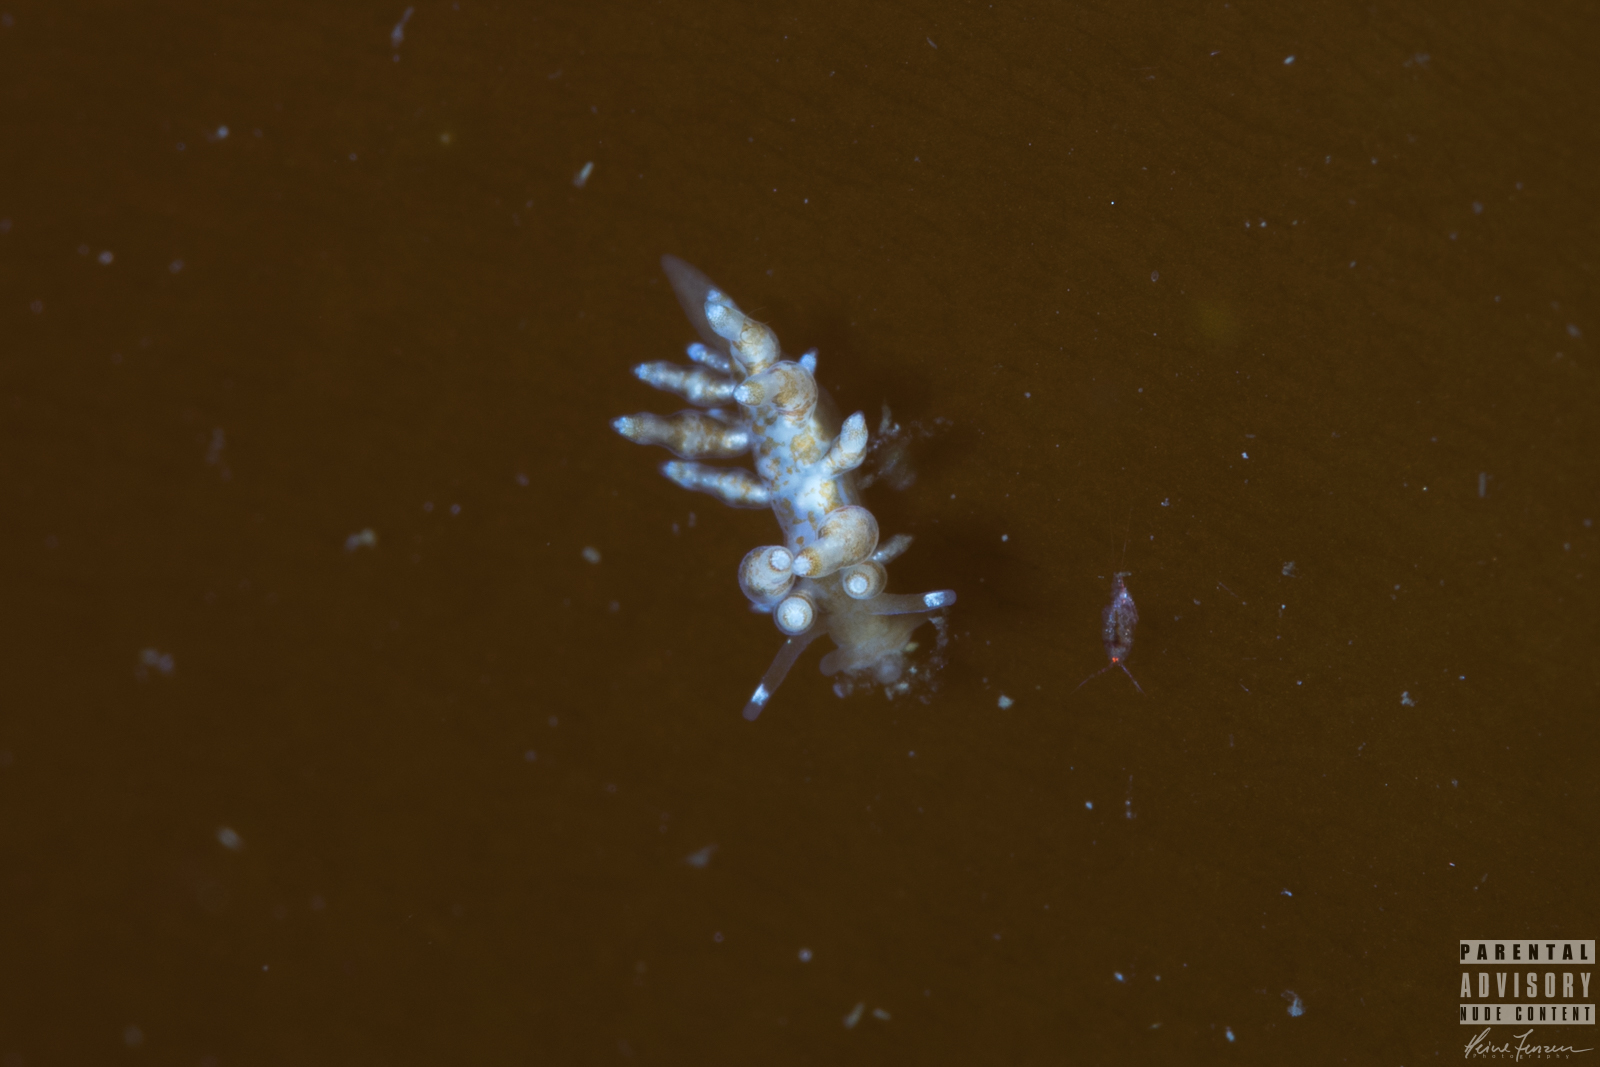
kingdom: Animalia
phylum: Mollusca
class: Gastropoda
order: Nudibranchia
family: Eubranchidae
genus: Eubranchus
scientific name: Eubranchus exiguus
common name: Balloon aeolis
